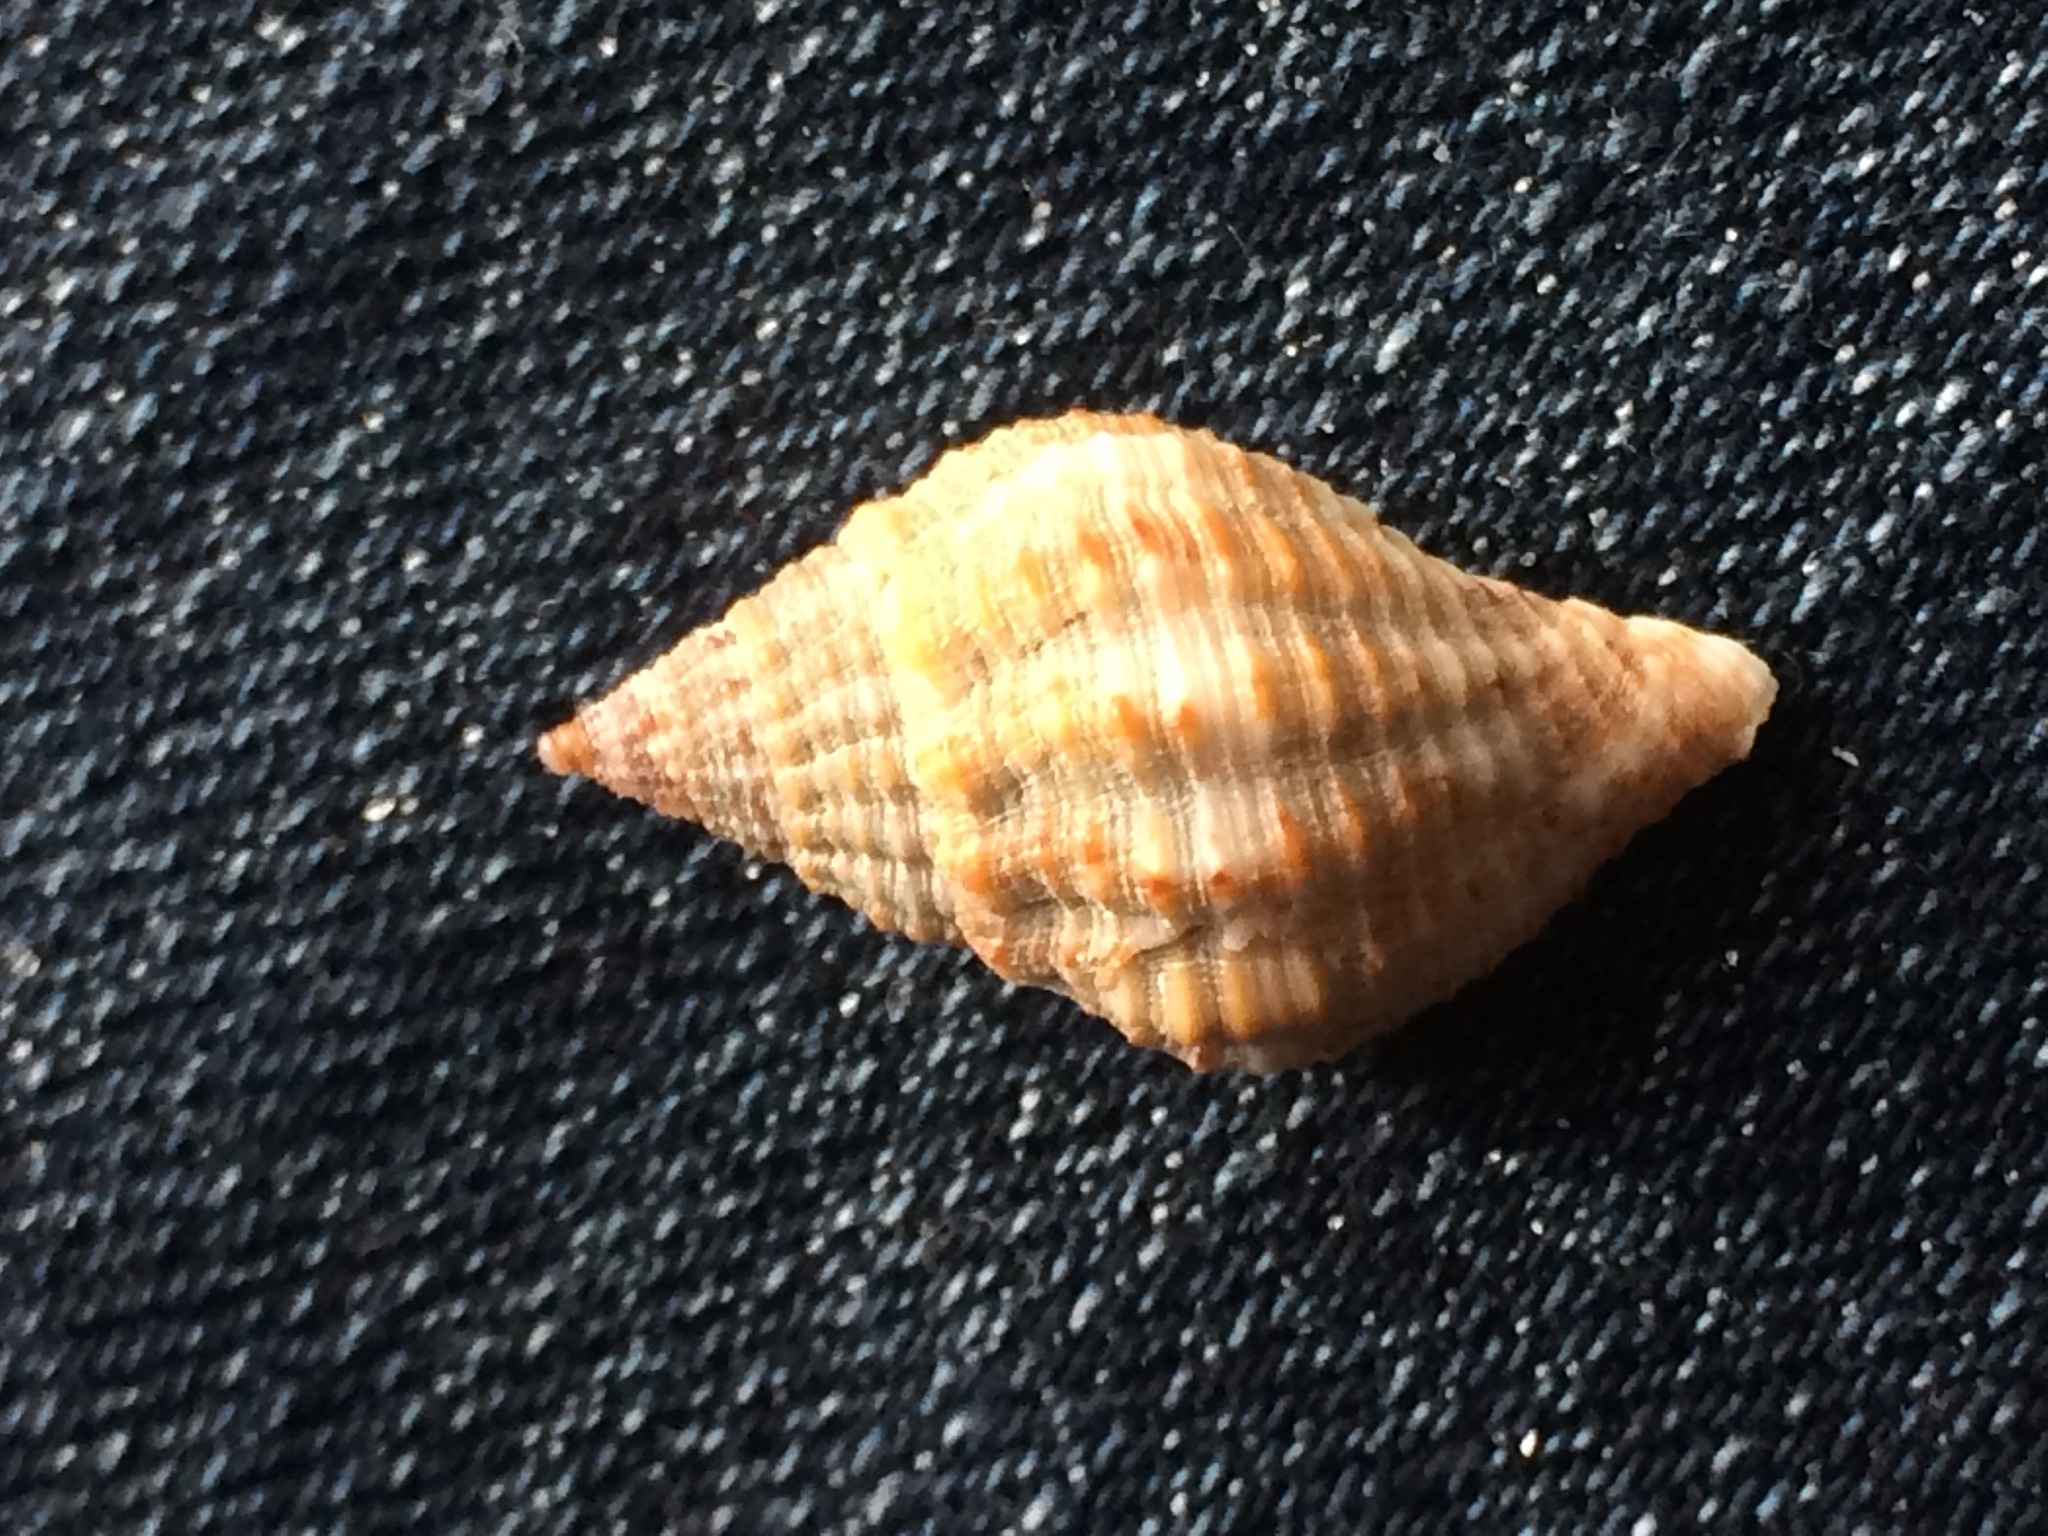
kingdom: Animalia
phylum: Mollusca
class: Gastropoda
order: Neogastropoda
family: Pisaniidae
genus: Gemophos
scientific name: Gemophos tinctus
